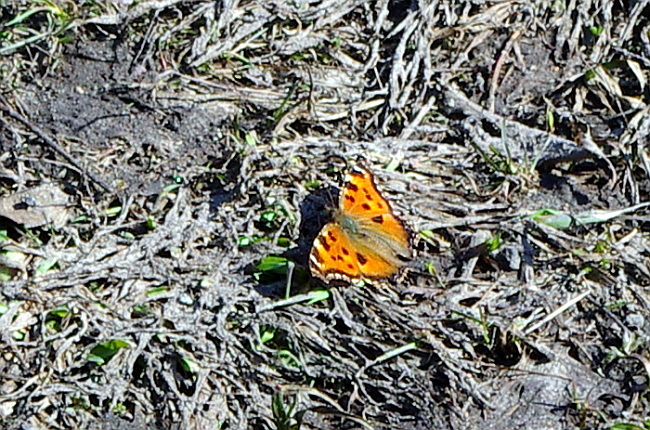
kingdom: Animalia
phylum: Arthropoda
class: Insecta
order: Lepidoptera
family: Nymphalidae
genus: Nymphalis
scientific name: Nymphalis xanthomelas
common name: Scarce tortoiseshell
